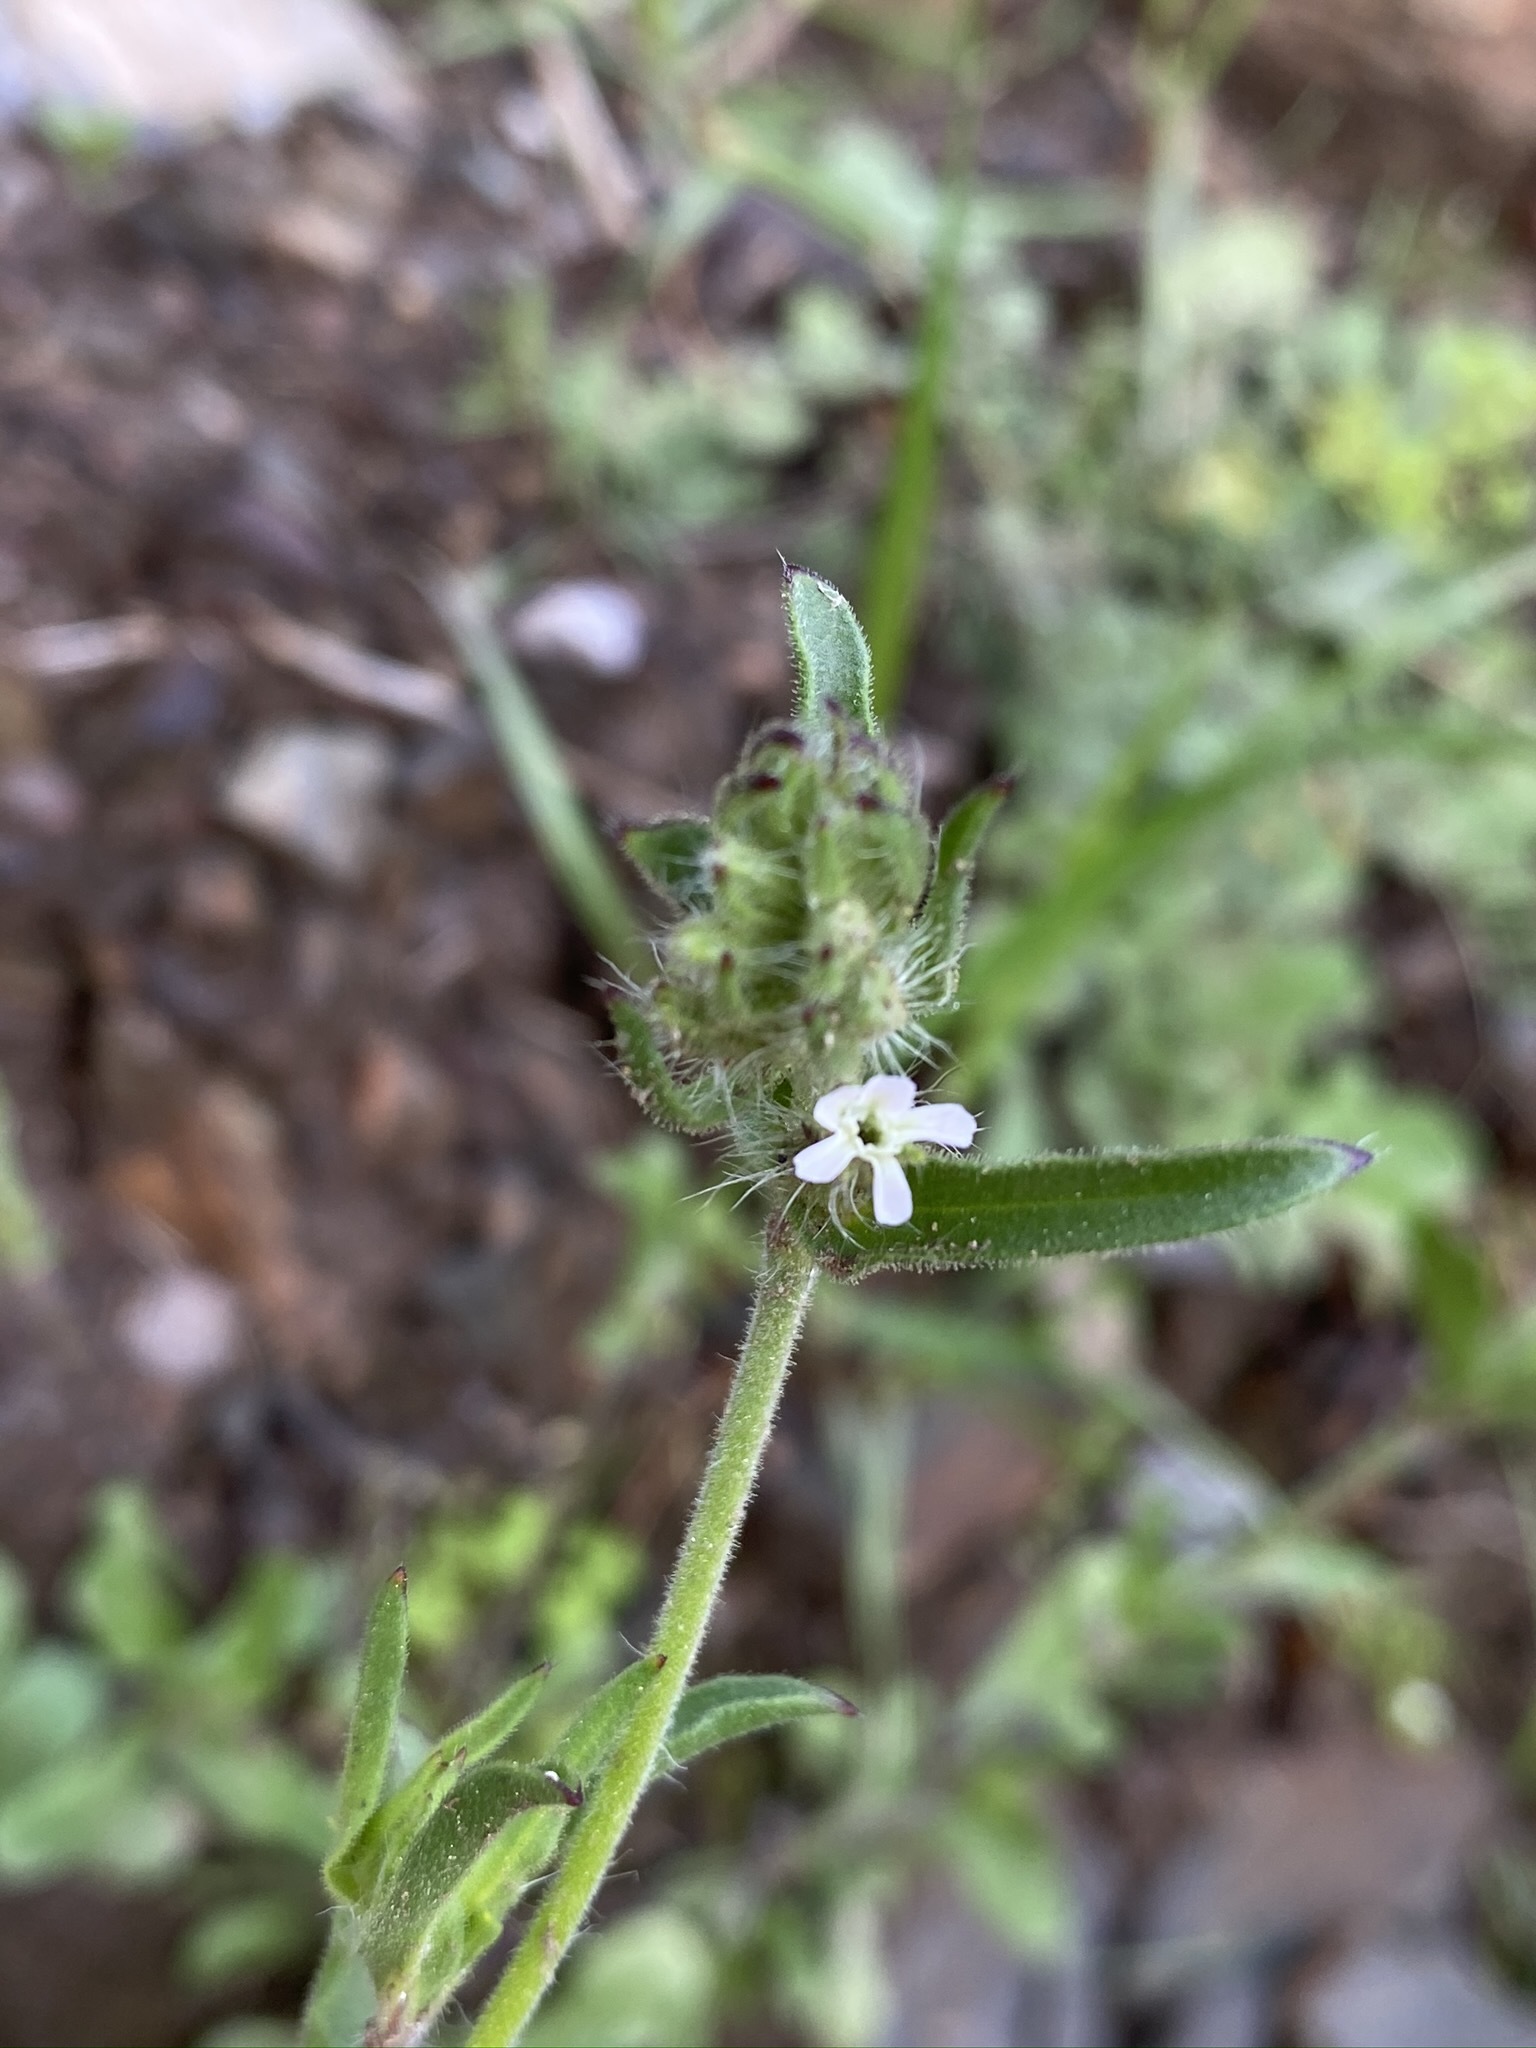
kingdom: Plantae
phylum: Tracheophyta
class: Magnoliopsida
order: Caryophyllales
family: Caryophyllaceae
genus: Silene
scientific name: Silene gallica
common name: Small-flowered catchfly
